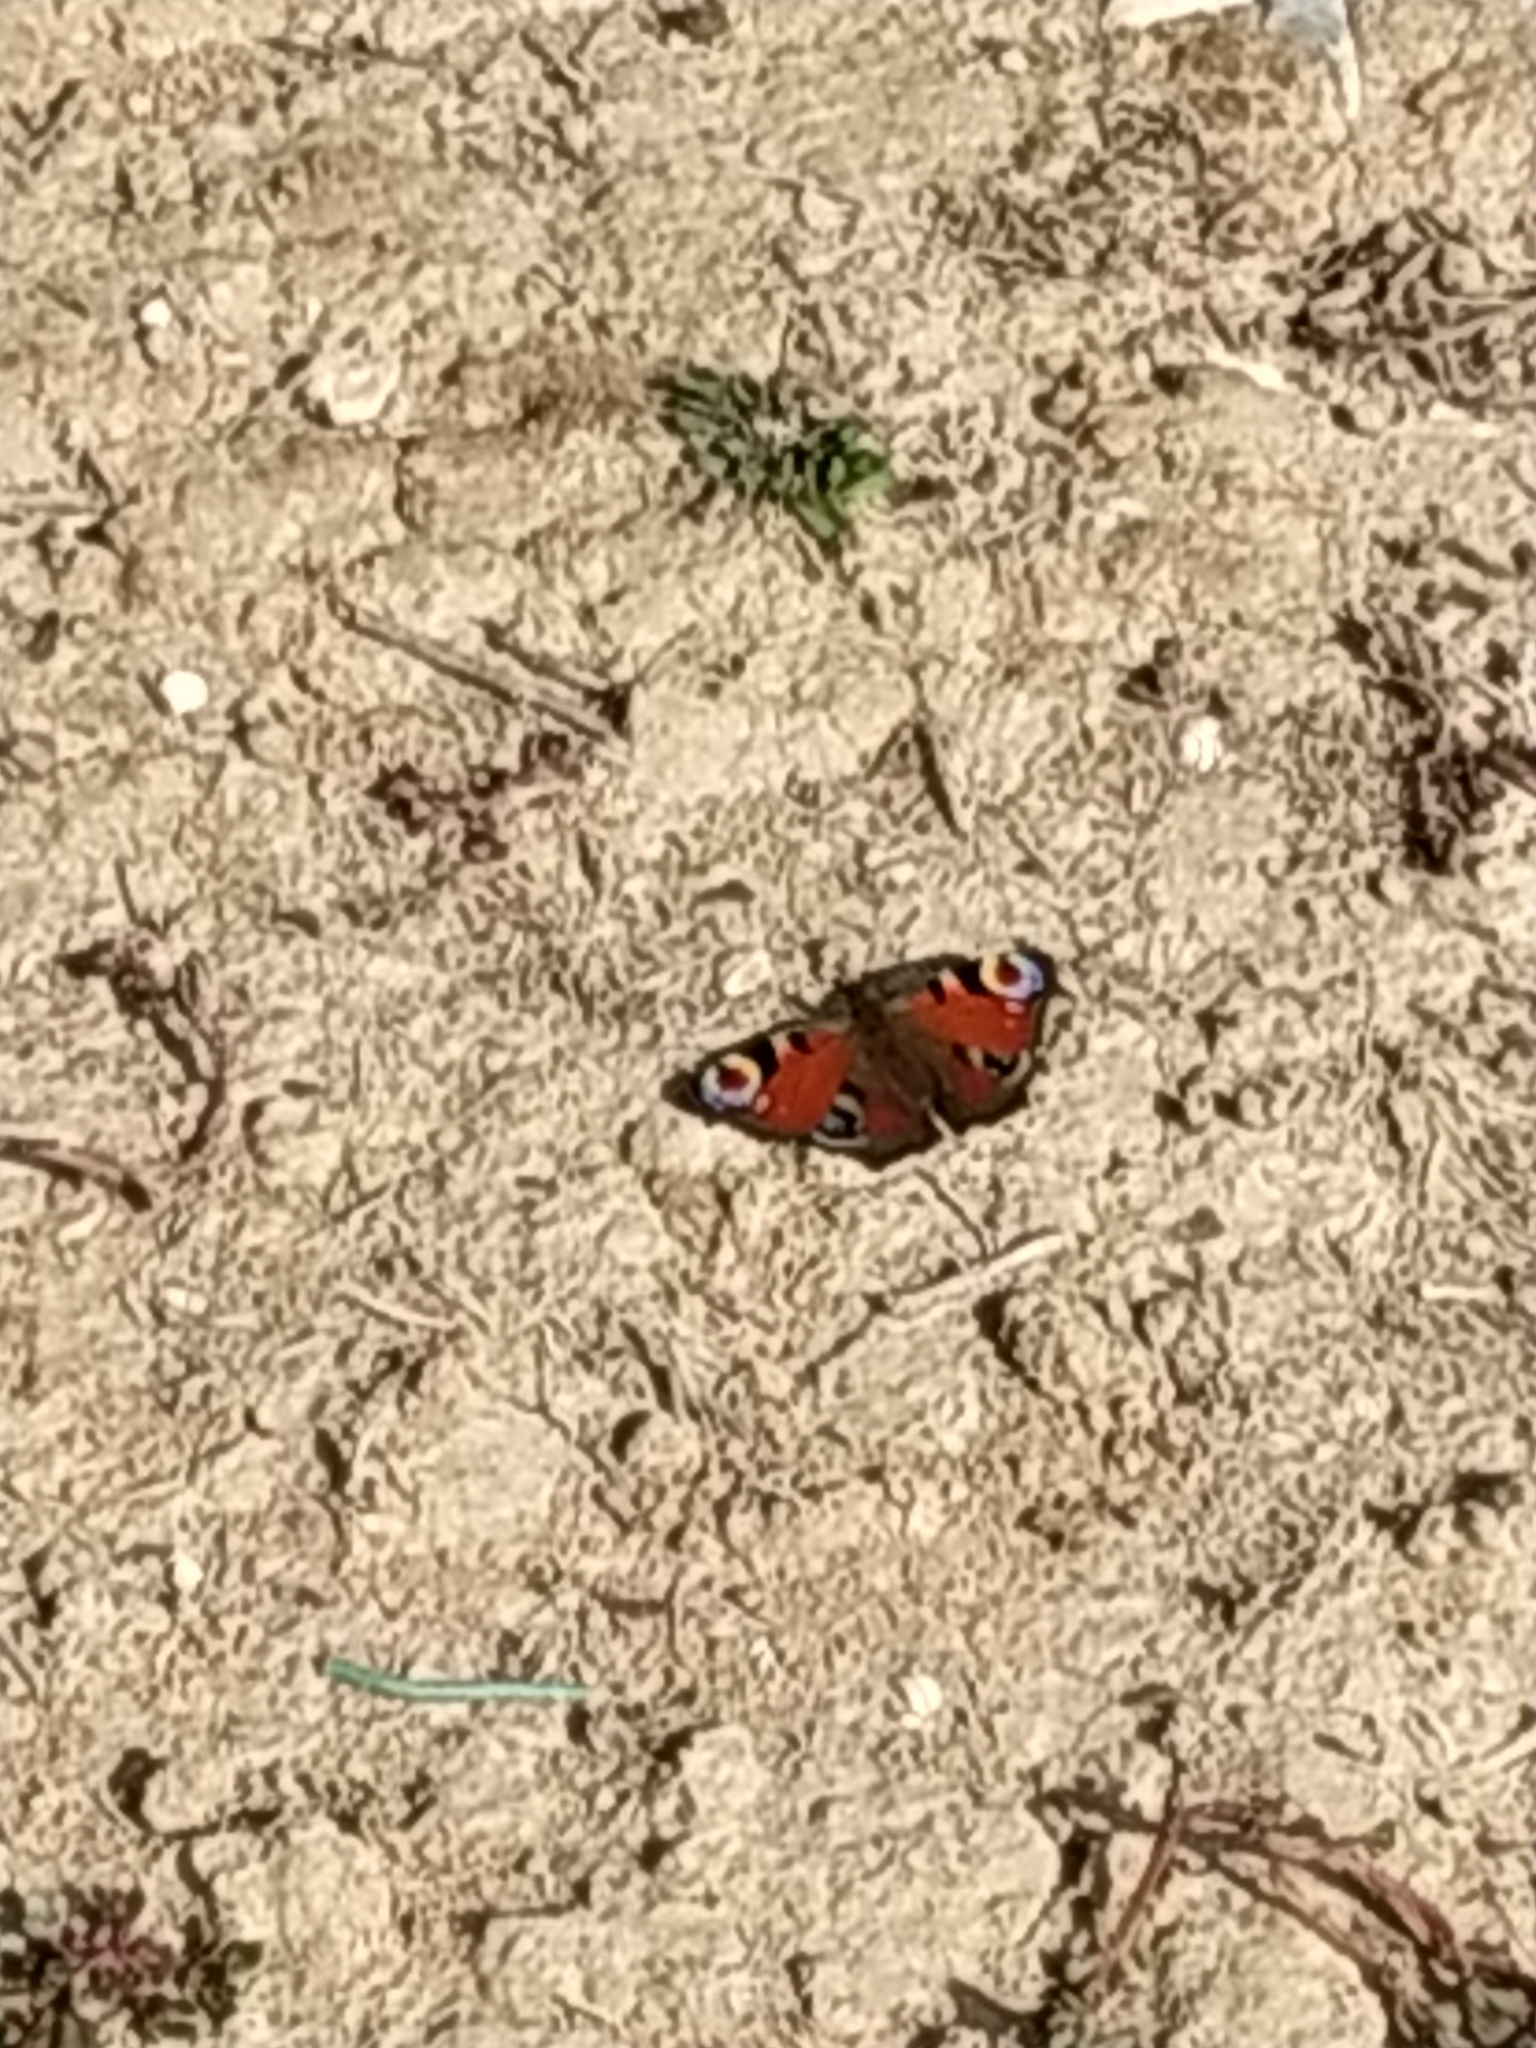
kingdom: Animalia
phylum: Arthropoda
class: Insecta
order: Lepidoptera
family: Nymphalidae
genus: Aglais
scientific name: Aglais io
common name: Peacock
